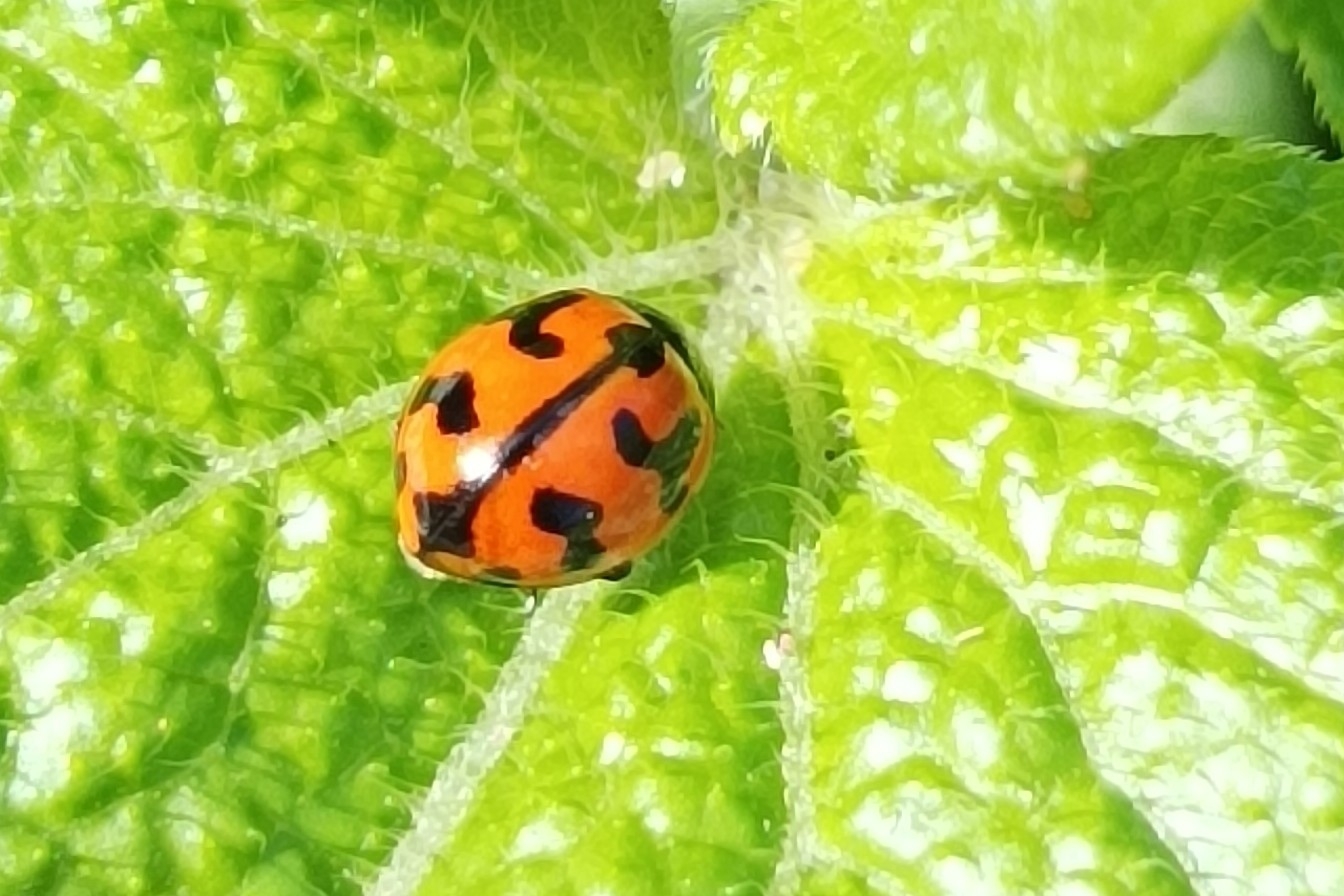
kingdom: Animalia
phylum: Arthropoda
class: Insecta
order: Coleoptera
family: Coccinellidae
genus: Coccinella
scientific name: Coccinella transversalis
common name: Transverse lady beetle
